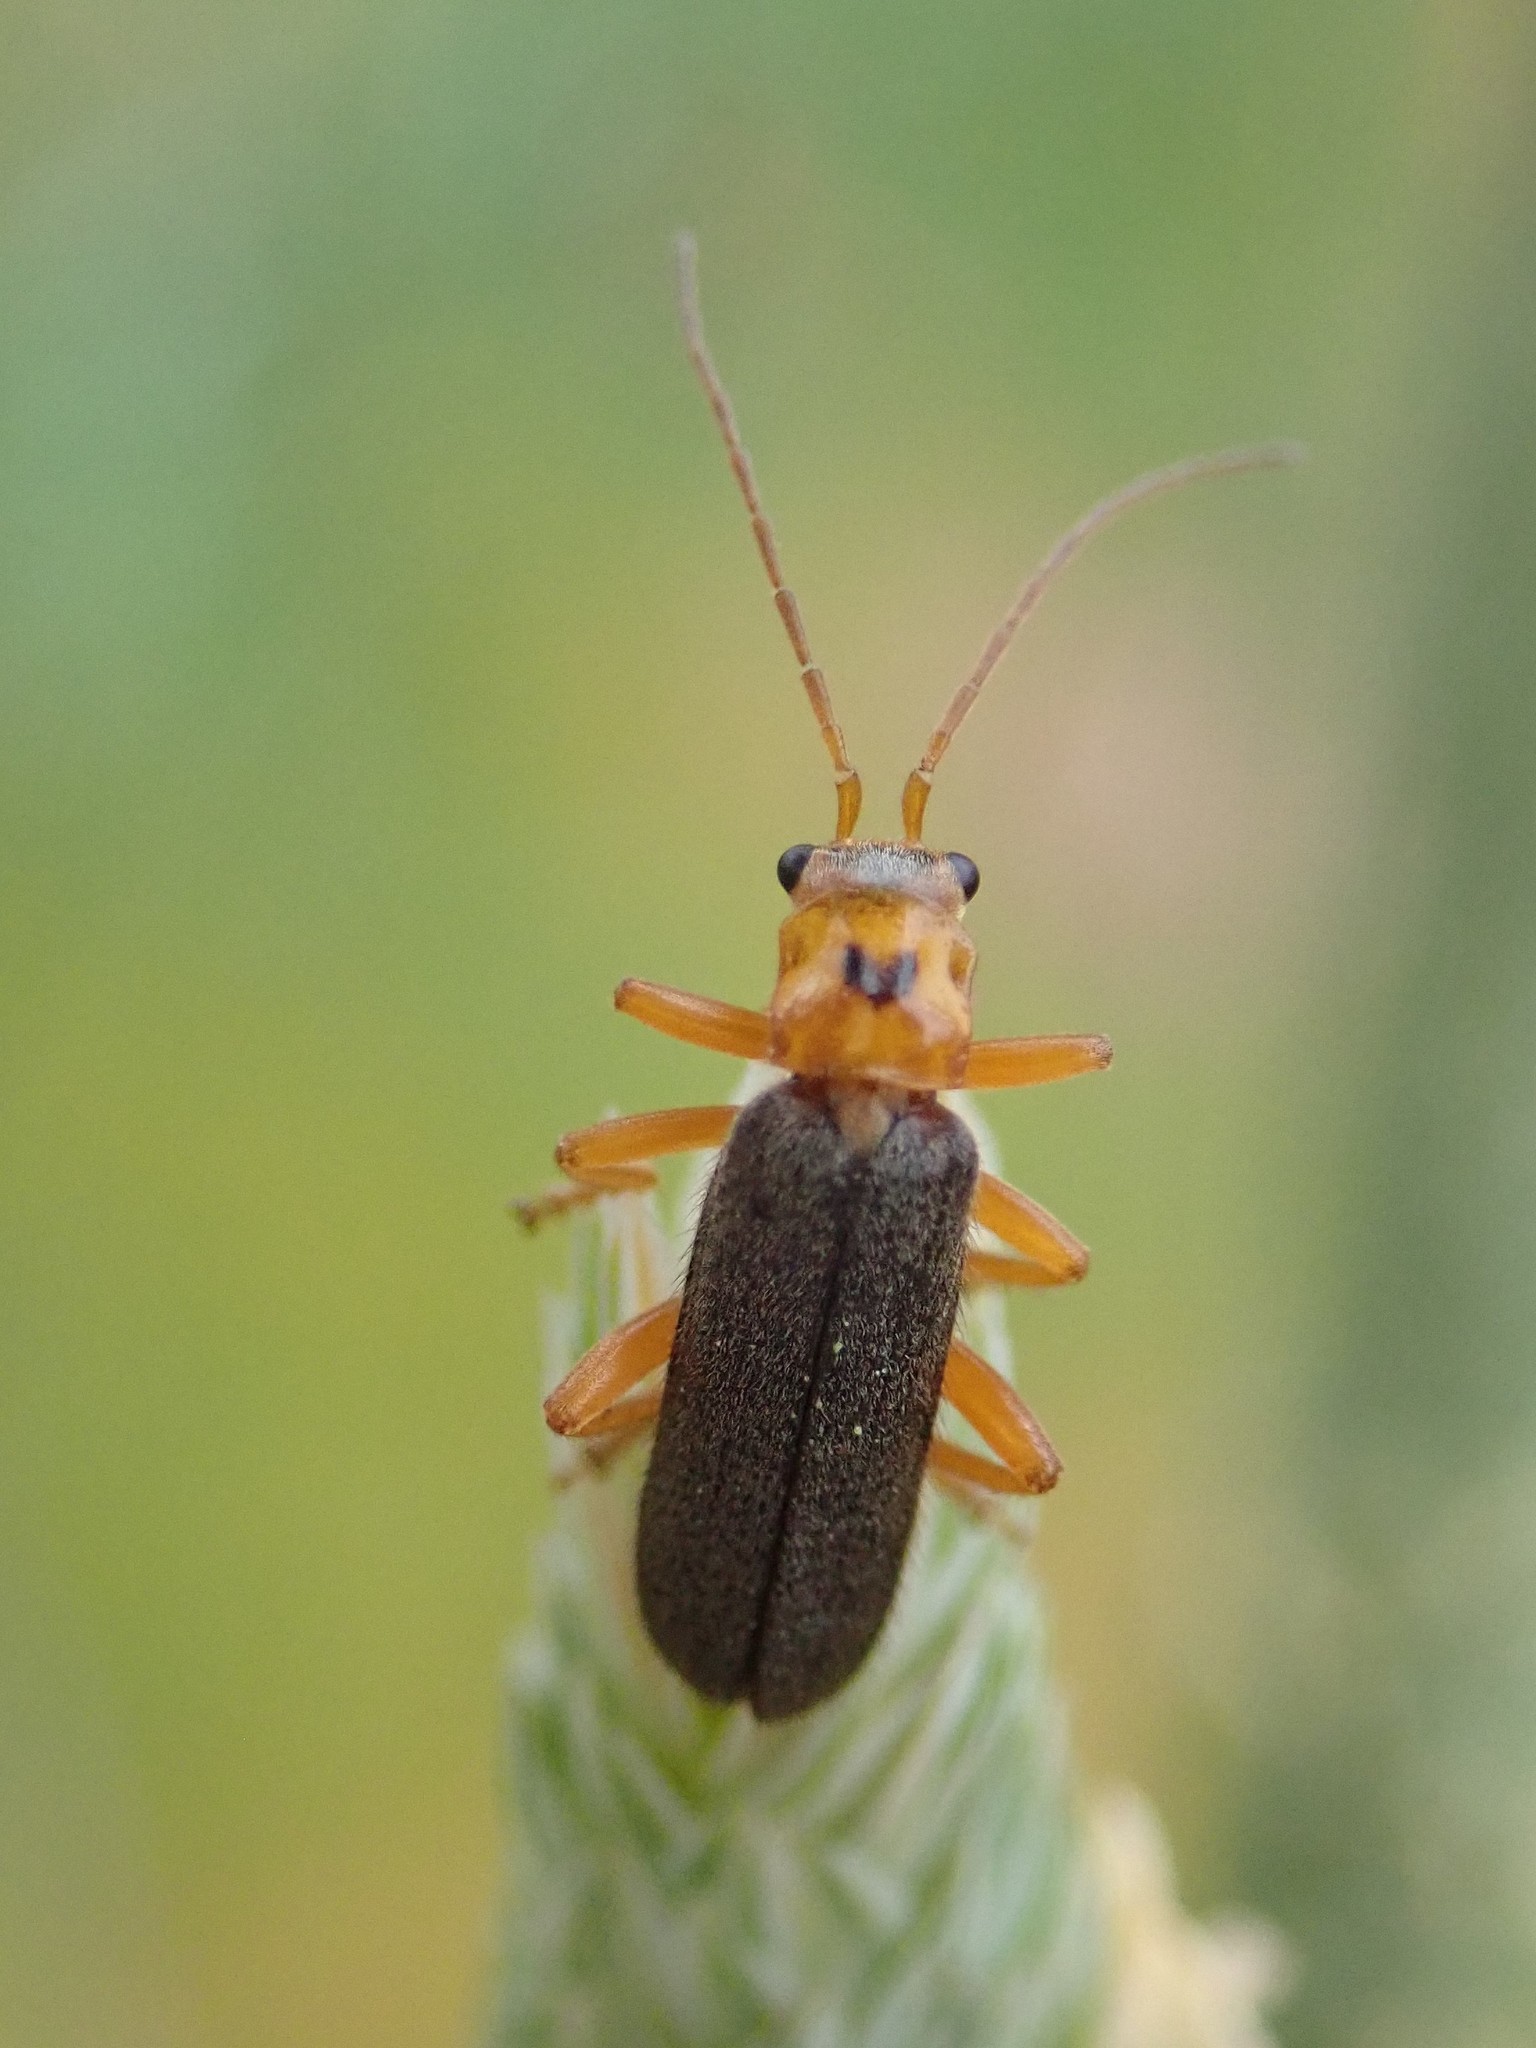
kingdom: Animalia
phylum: Arthropoda
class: Insecta
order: Coleoptera
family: Cantharidae
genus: Cultellunguis
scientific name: Cultellunguis americanus
